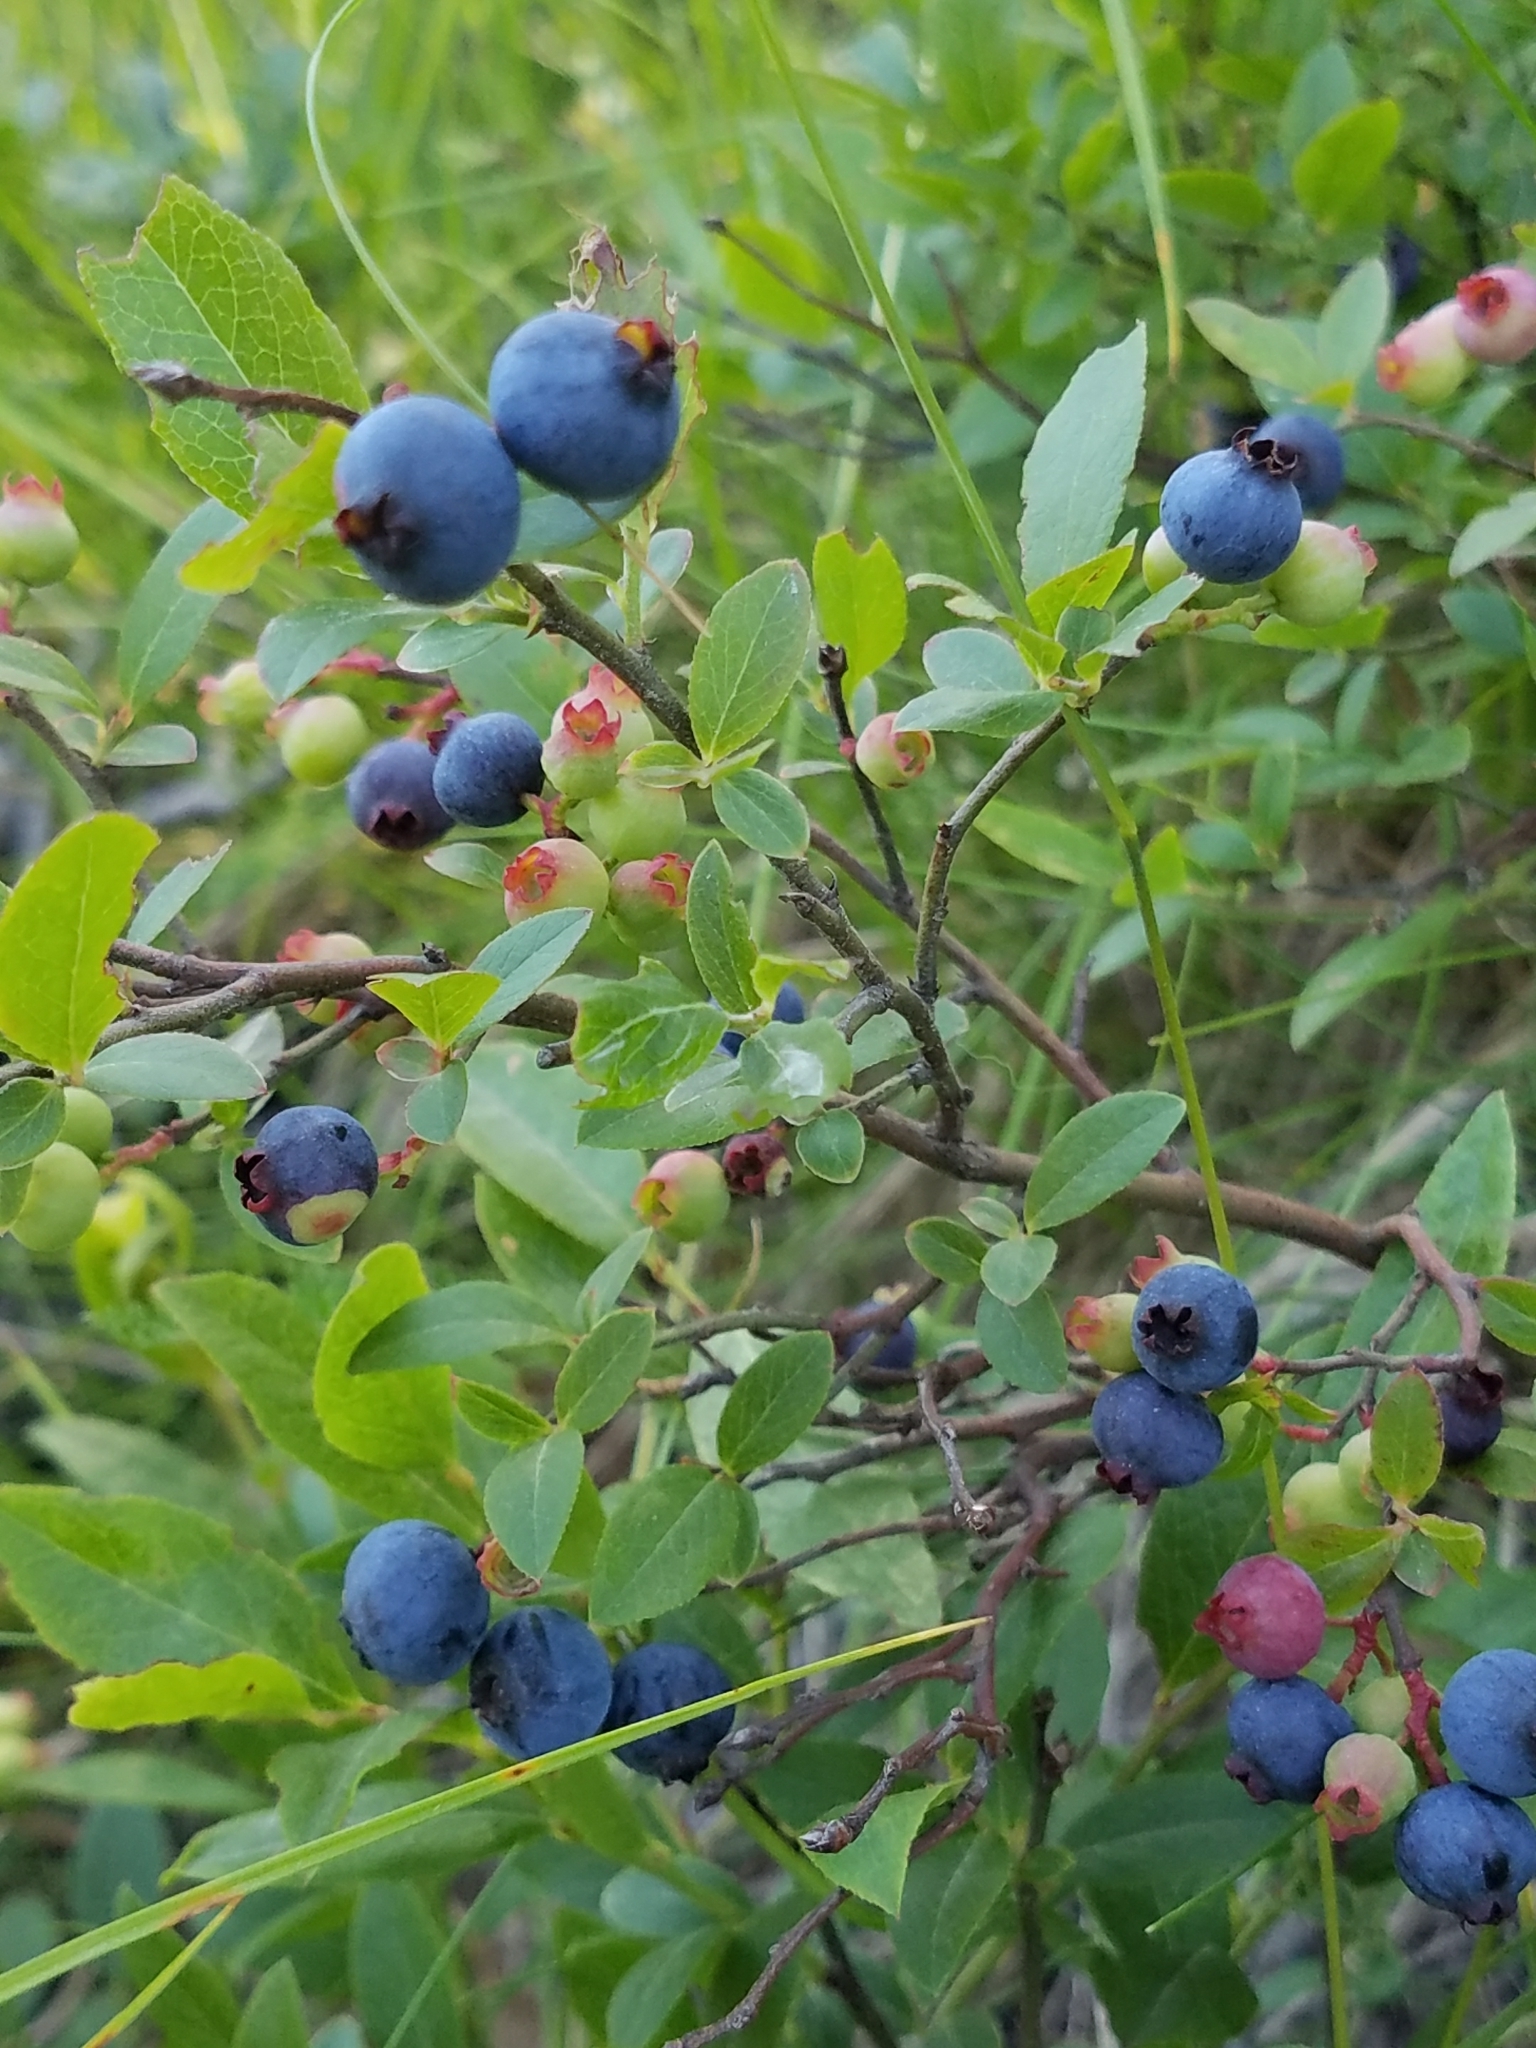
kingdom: Plantae
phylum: Tracheophyta
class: Magnoliopsida
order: Ericales
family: Ericaceae
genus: Vaccinium
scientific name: Vaccinium angustifolium
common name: Early lowbush blueberry
